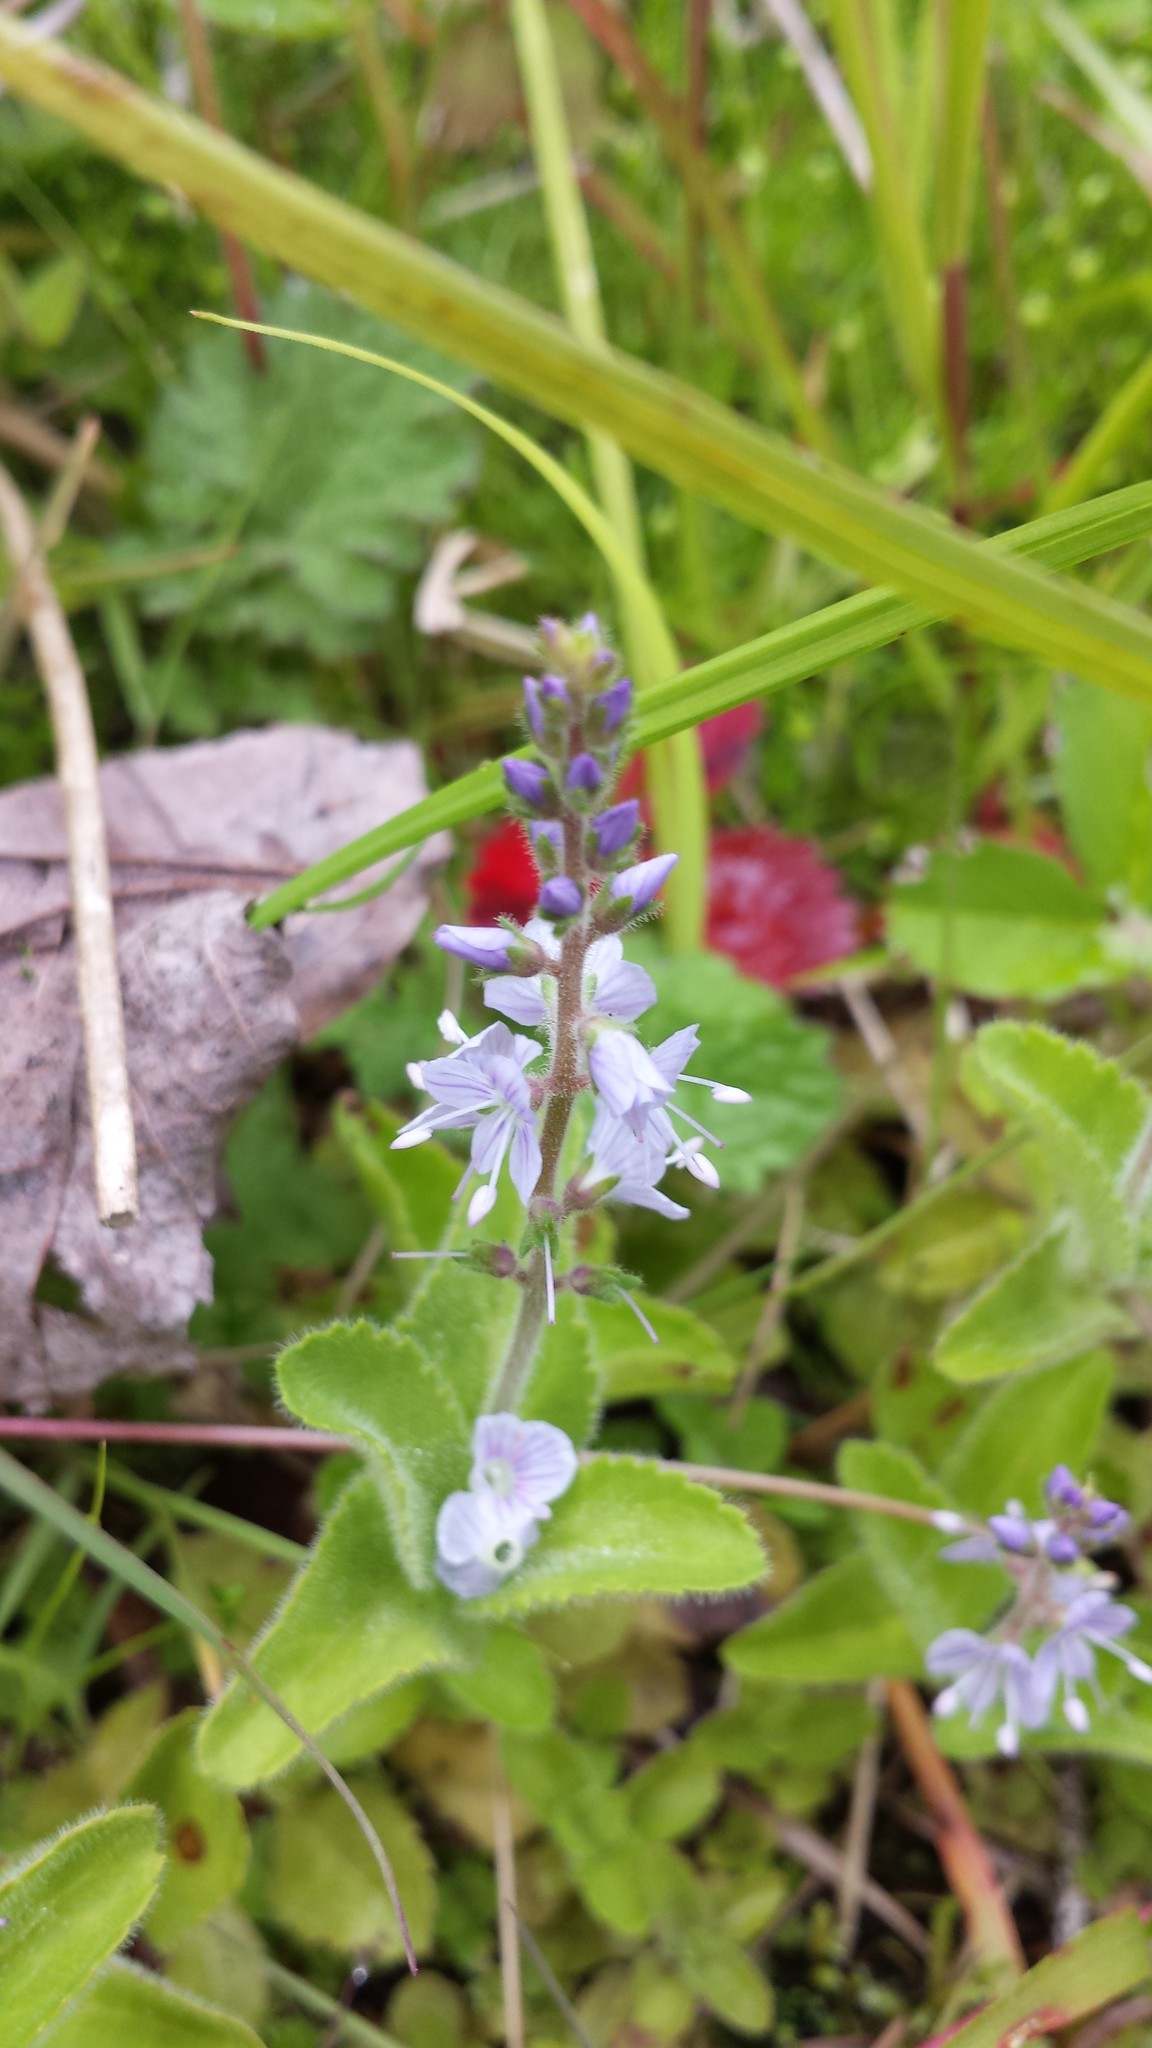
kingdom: Plantae
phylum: Tracheophyta
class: Magnoliopsida
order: Lamiales
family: Plantaginaceae
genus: Veronica
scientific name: Veronica officinalis
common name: Common speedwell
